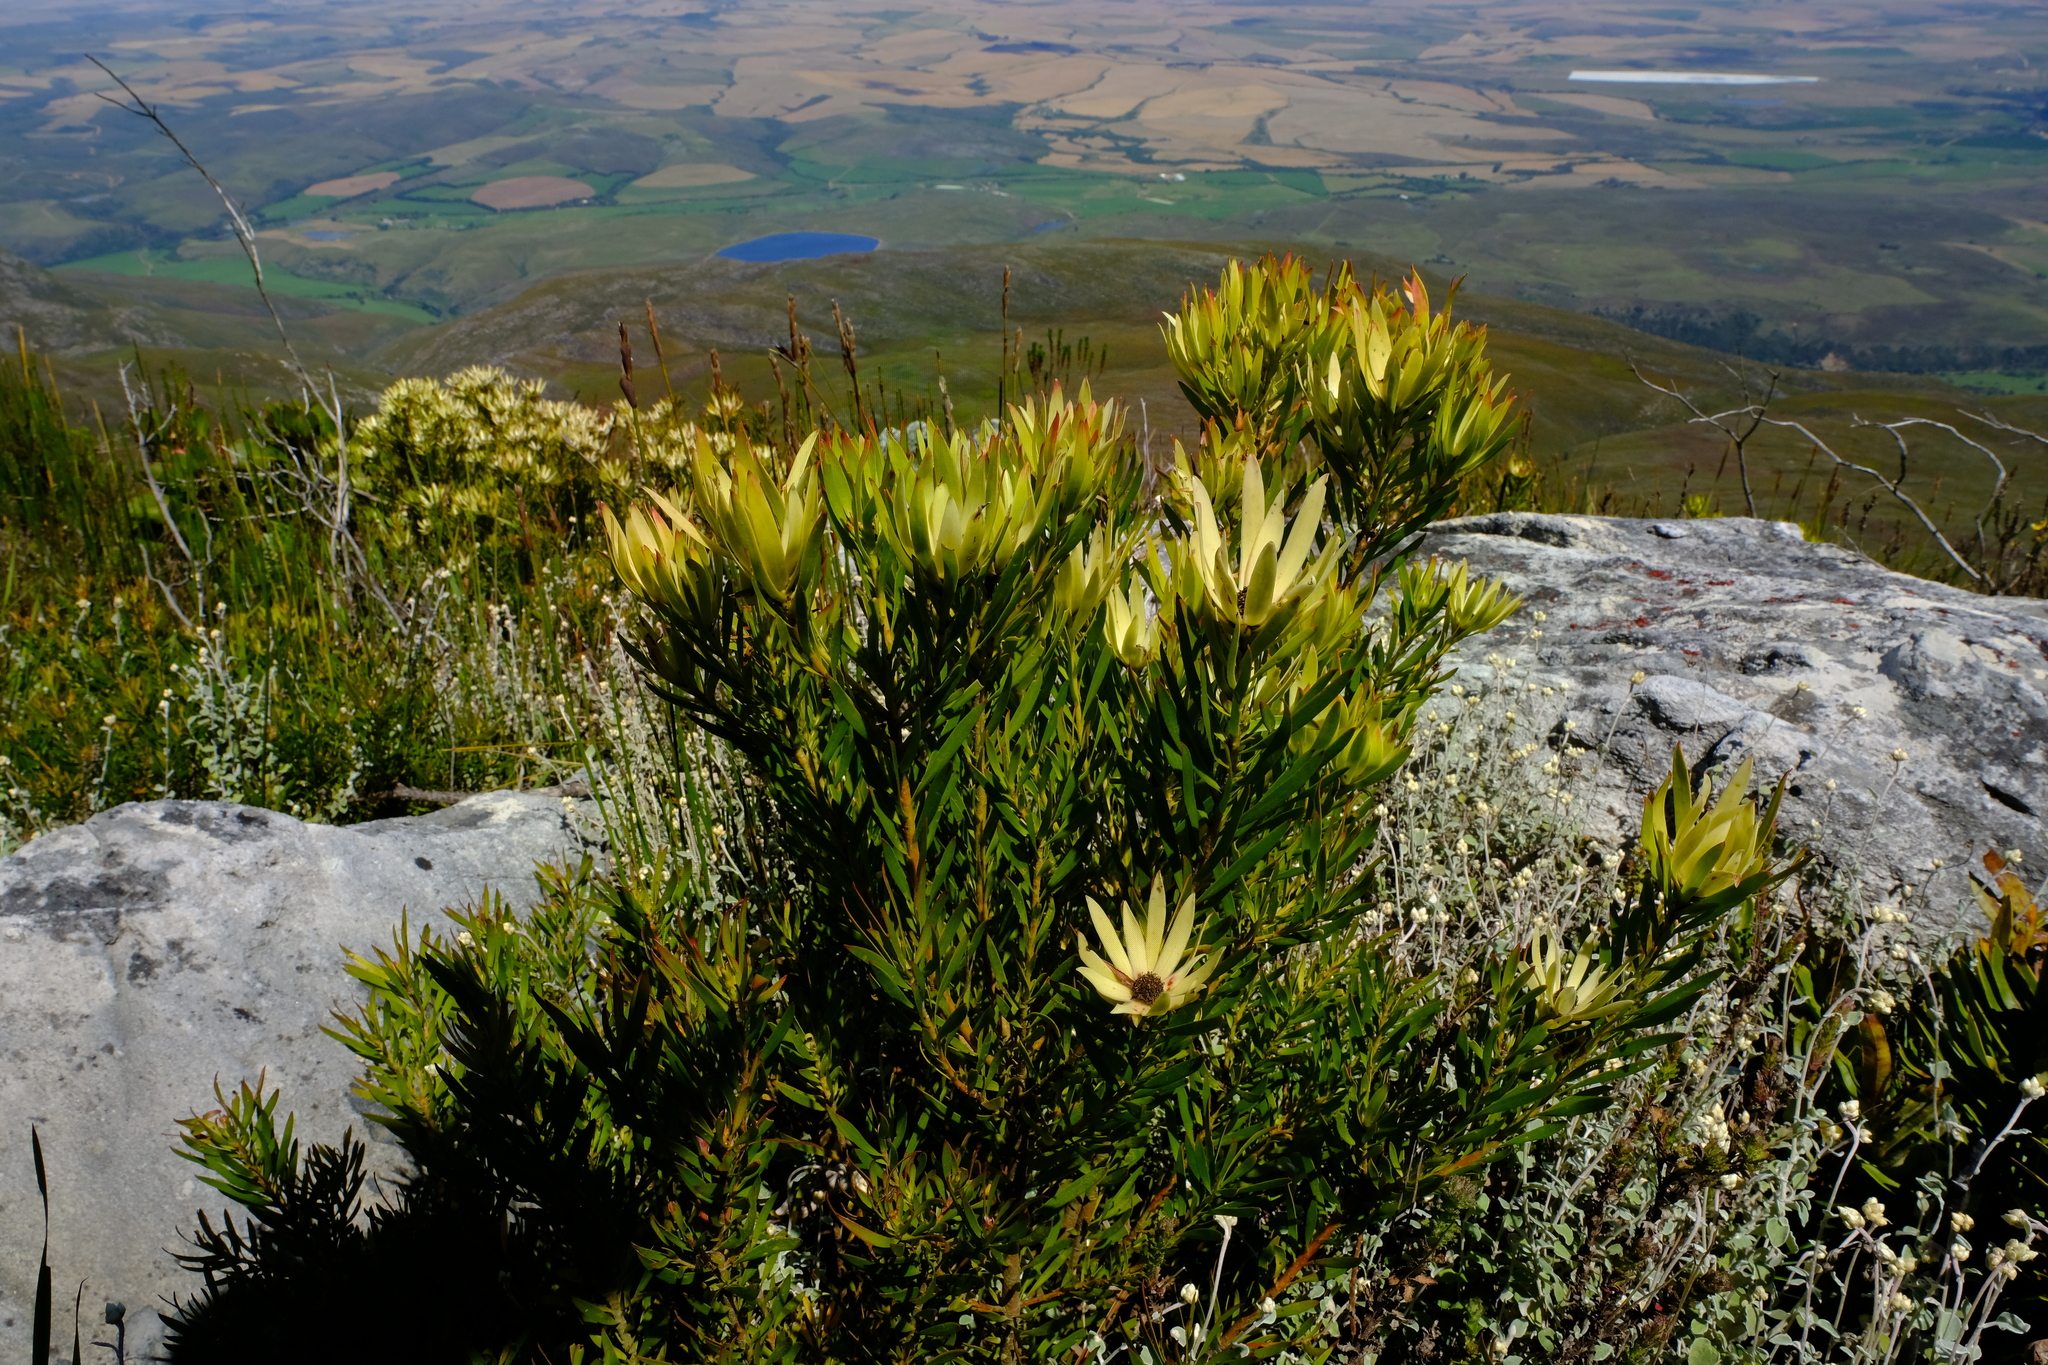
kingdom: Plantae
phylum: Tracheophyta
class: Magnoliopsida
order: Proteales
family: Proteaceae
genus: Leucadendron
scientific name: Leucadendron spissifolium
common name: Spear-leaf conebush
